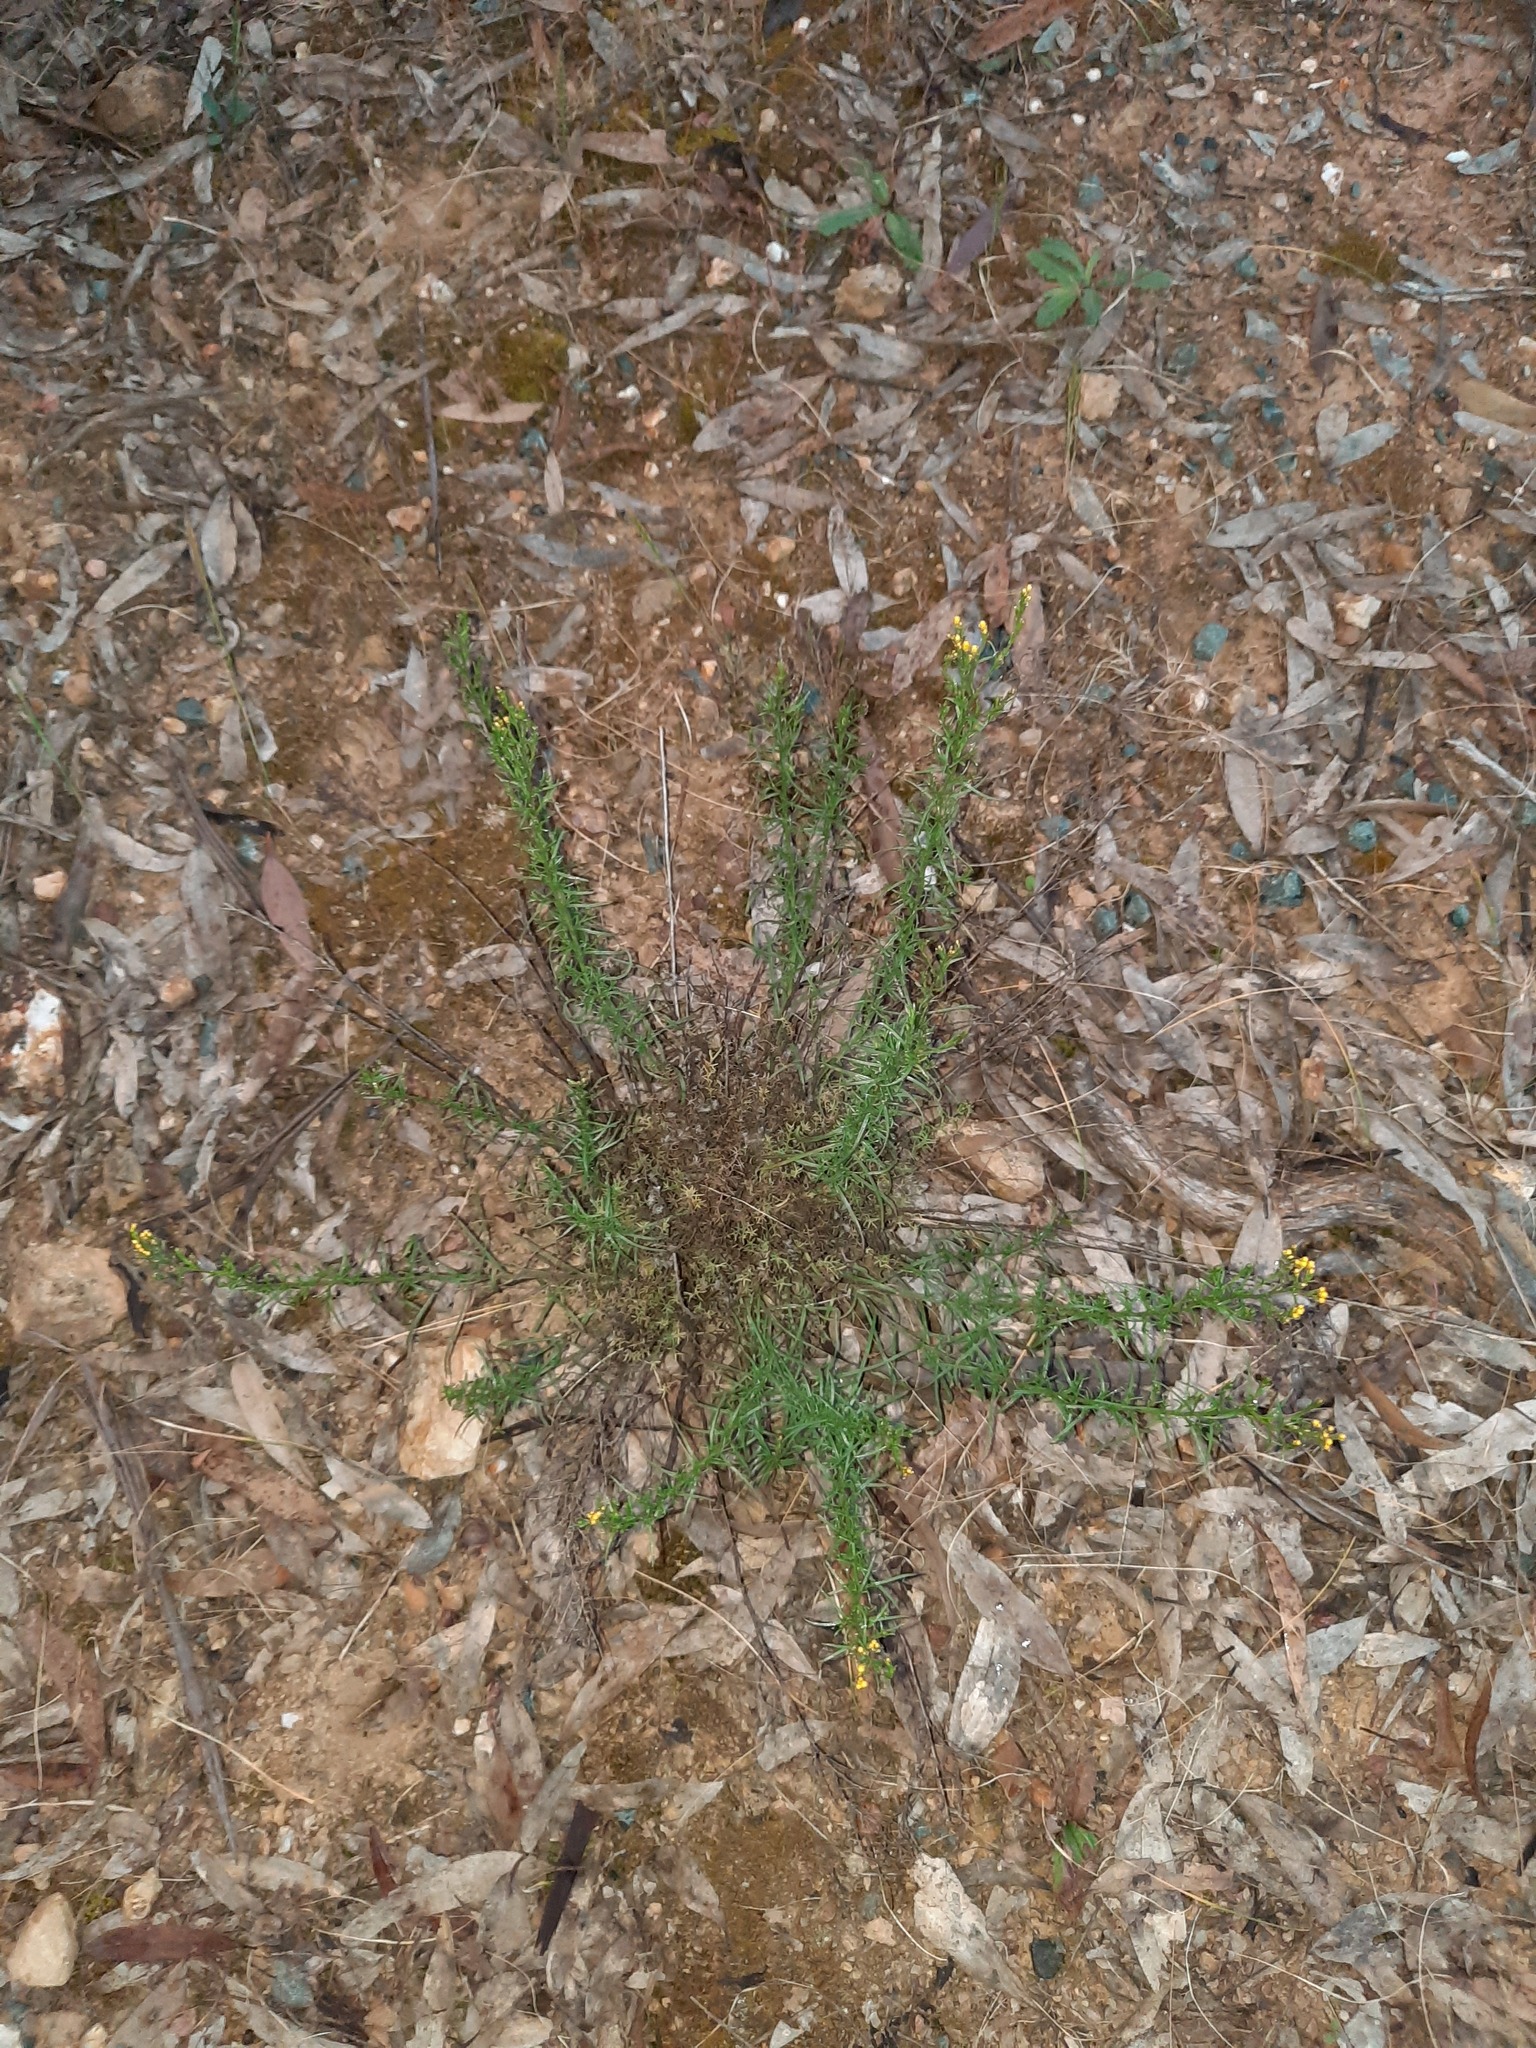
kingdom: Plantae
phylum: Tracheophyta
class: Magnoliopsida
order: Asterales
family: Asteraceae
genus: Chrysocephalum
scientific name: Chrysocephalum semipapposum
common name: Clustered everlasting
